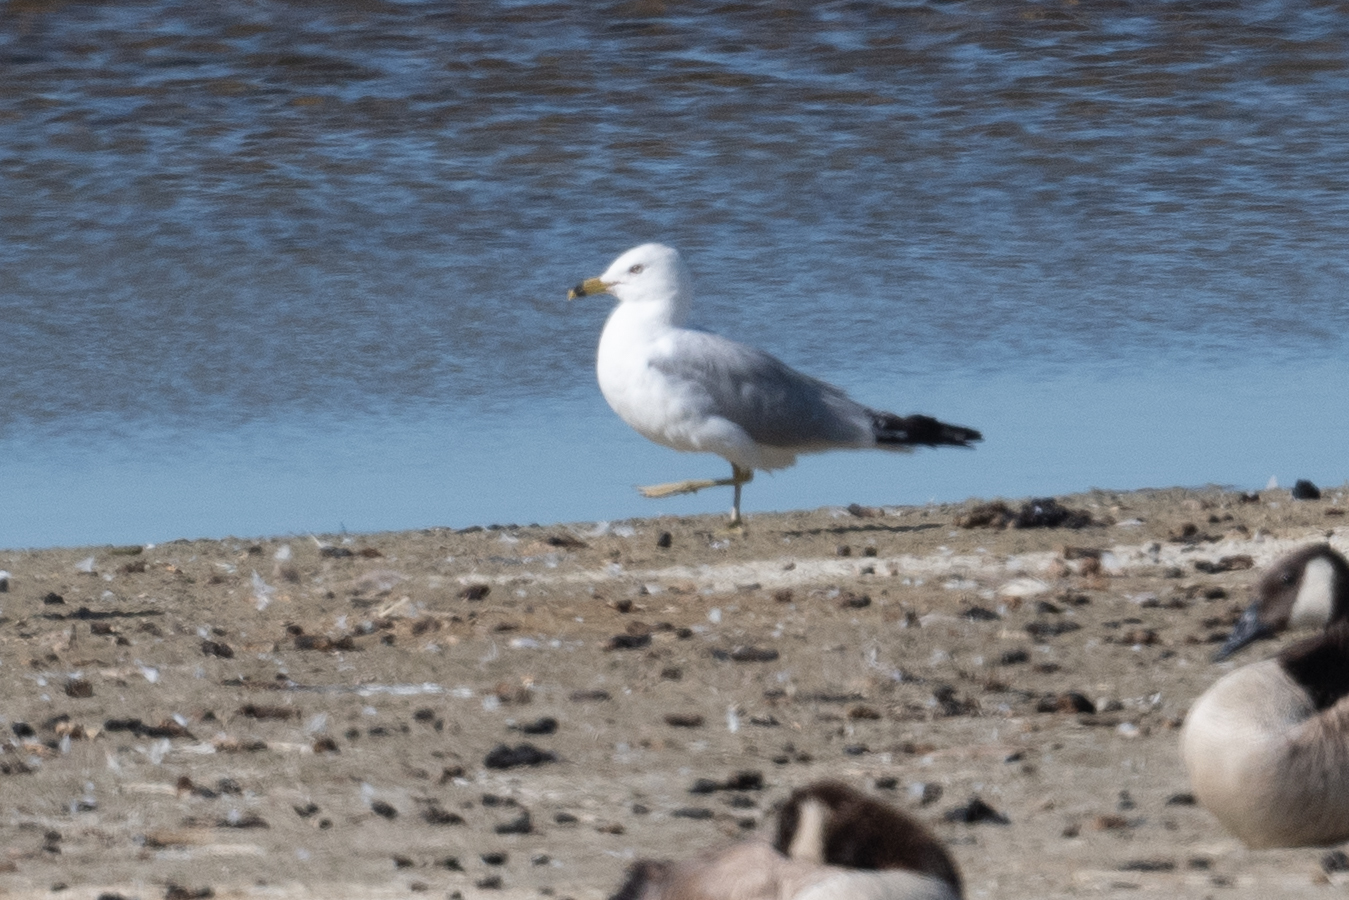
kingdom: Animalia
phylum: Chordata
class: Aves
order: Charadriiformes
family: Laridae
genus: Larus
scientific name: Larus delawarensis
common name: Ring-billed gull
